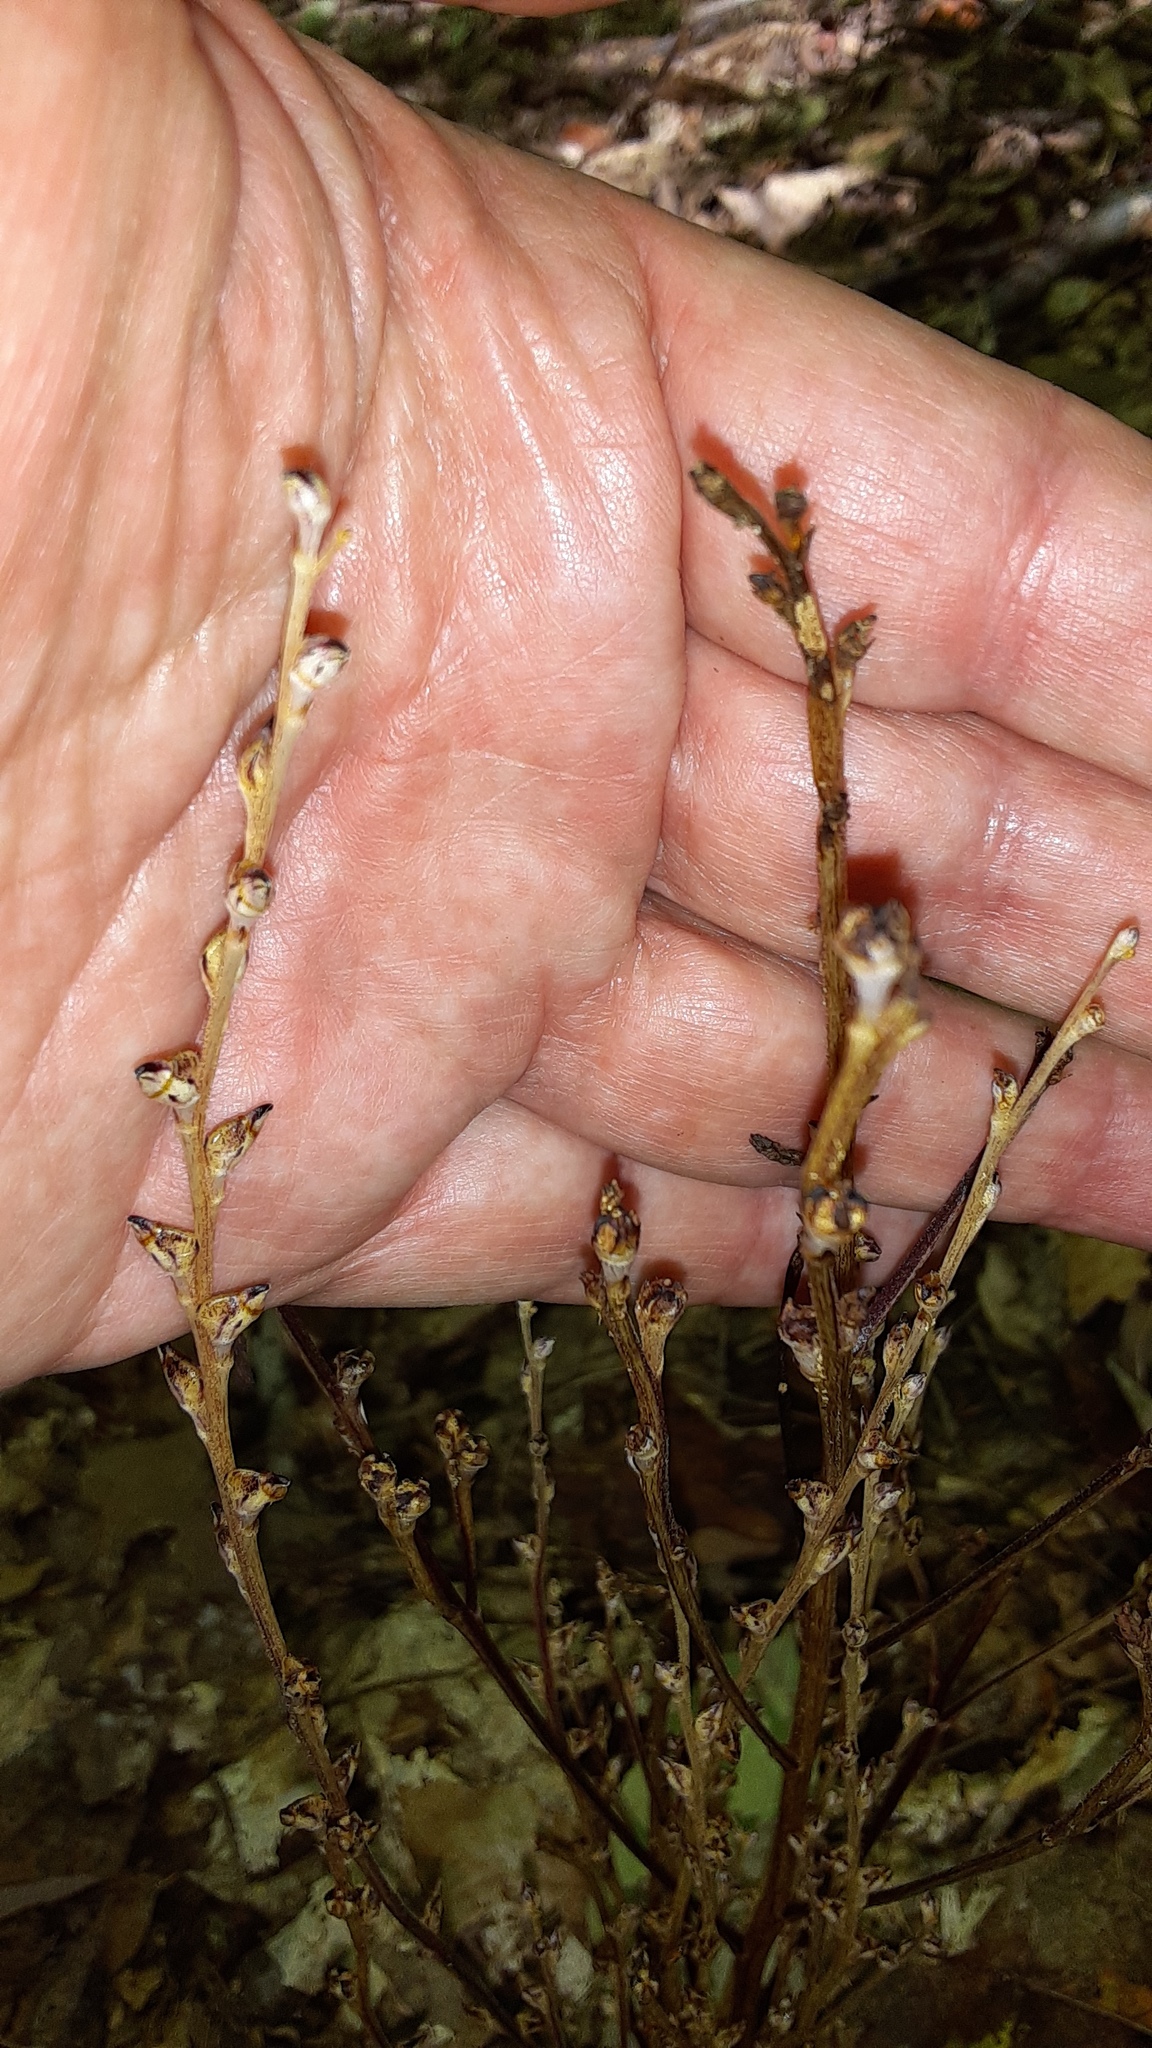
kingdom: Plantae
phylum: Tracheophyta
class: Magnoliopsida
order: Lamiales
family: Orobanchaceae
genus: Epifagus
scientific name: Epifagus virginiana
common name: Beechdrops
